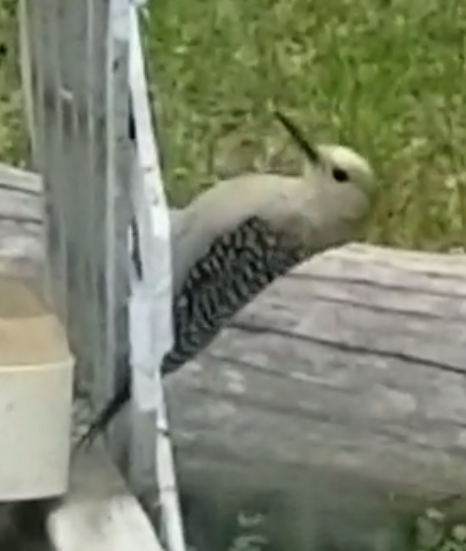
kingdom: Animalia
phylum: Chordata
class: Aves
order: Piciformes
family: Picidae
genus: Melanerpes
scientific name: Melanerpes aurifrons
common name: Golden-fronted woodpecker
